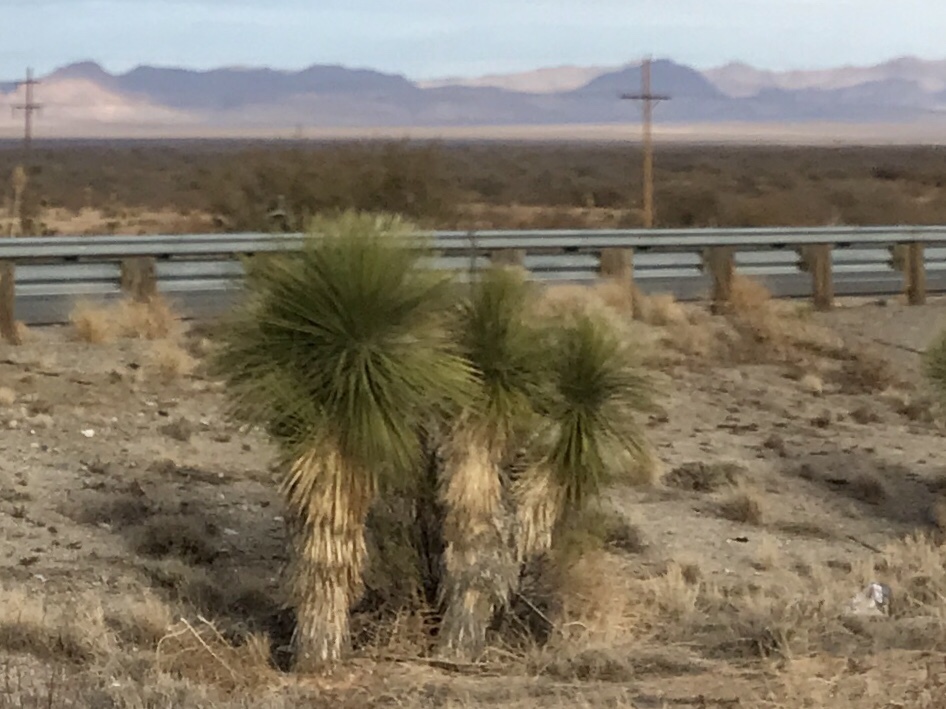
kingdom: Plantae
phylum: Tracheophyta
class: Liliopsida
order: Asparagales
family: Asparagaceae
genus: Yucca
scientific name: Yucca elata
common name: Palmella
